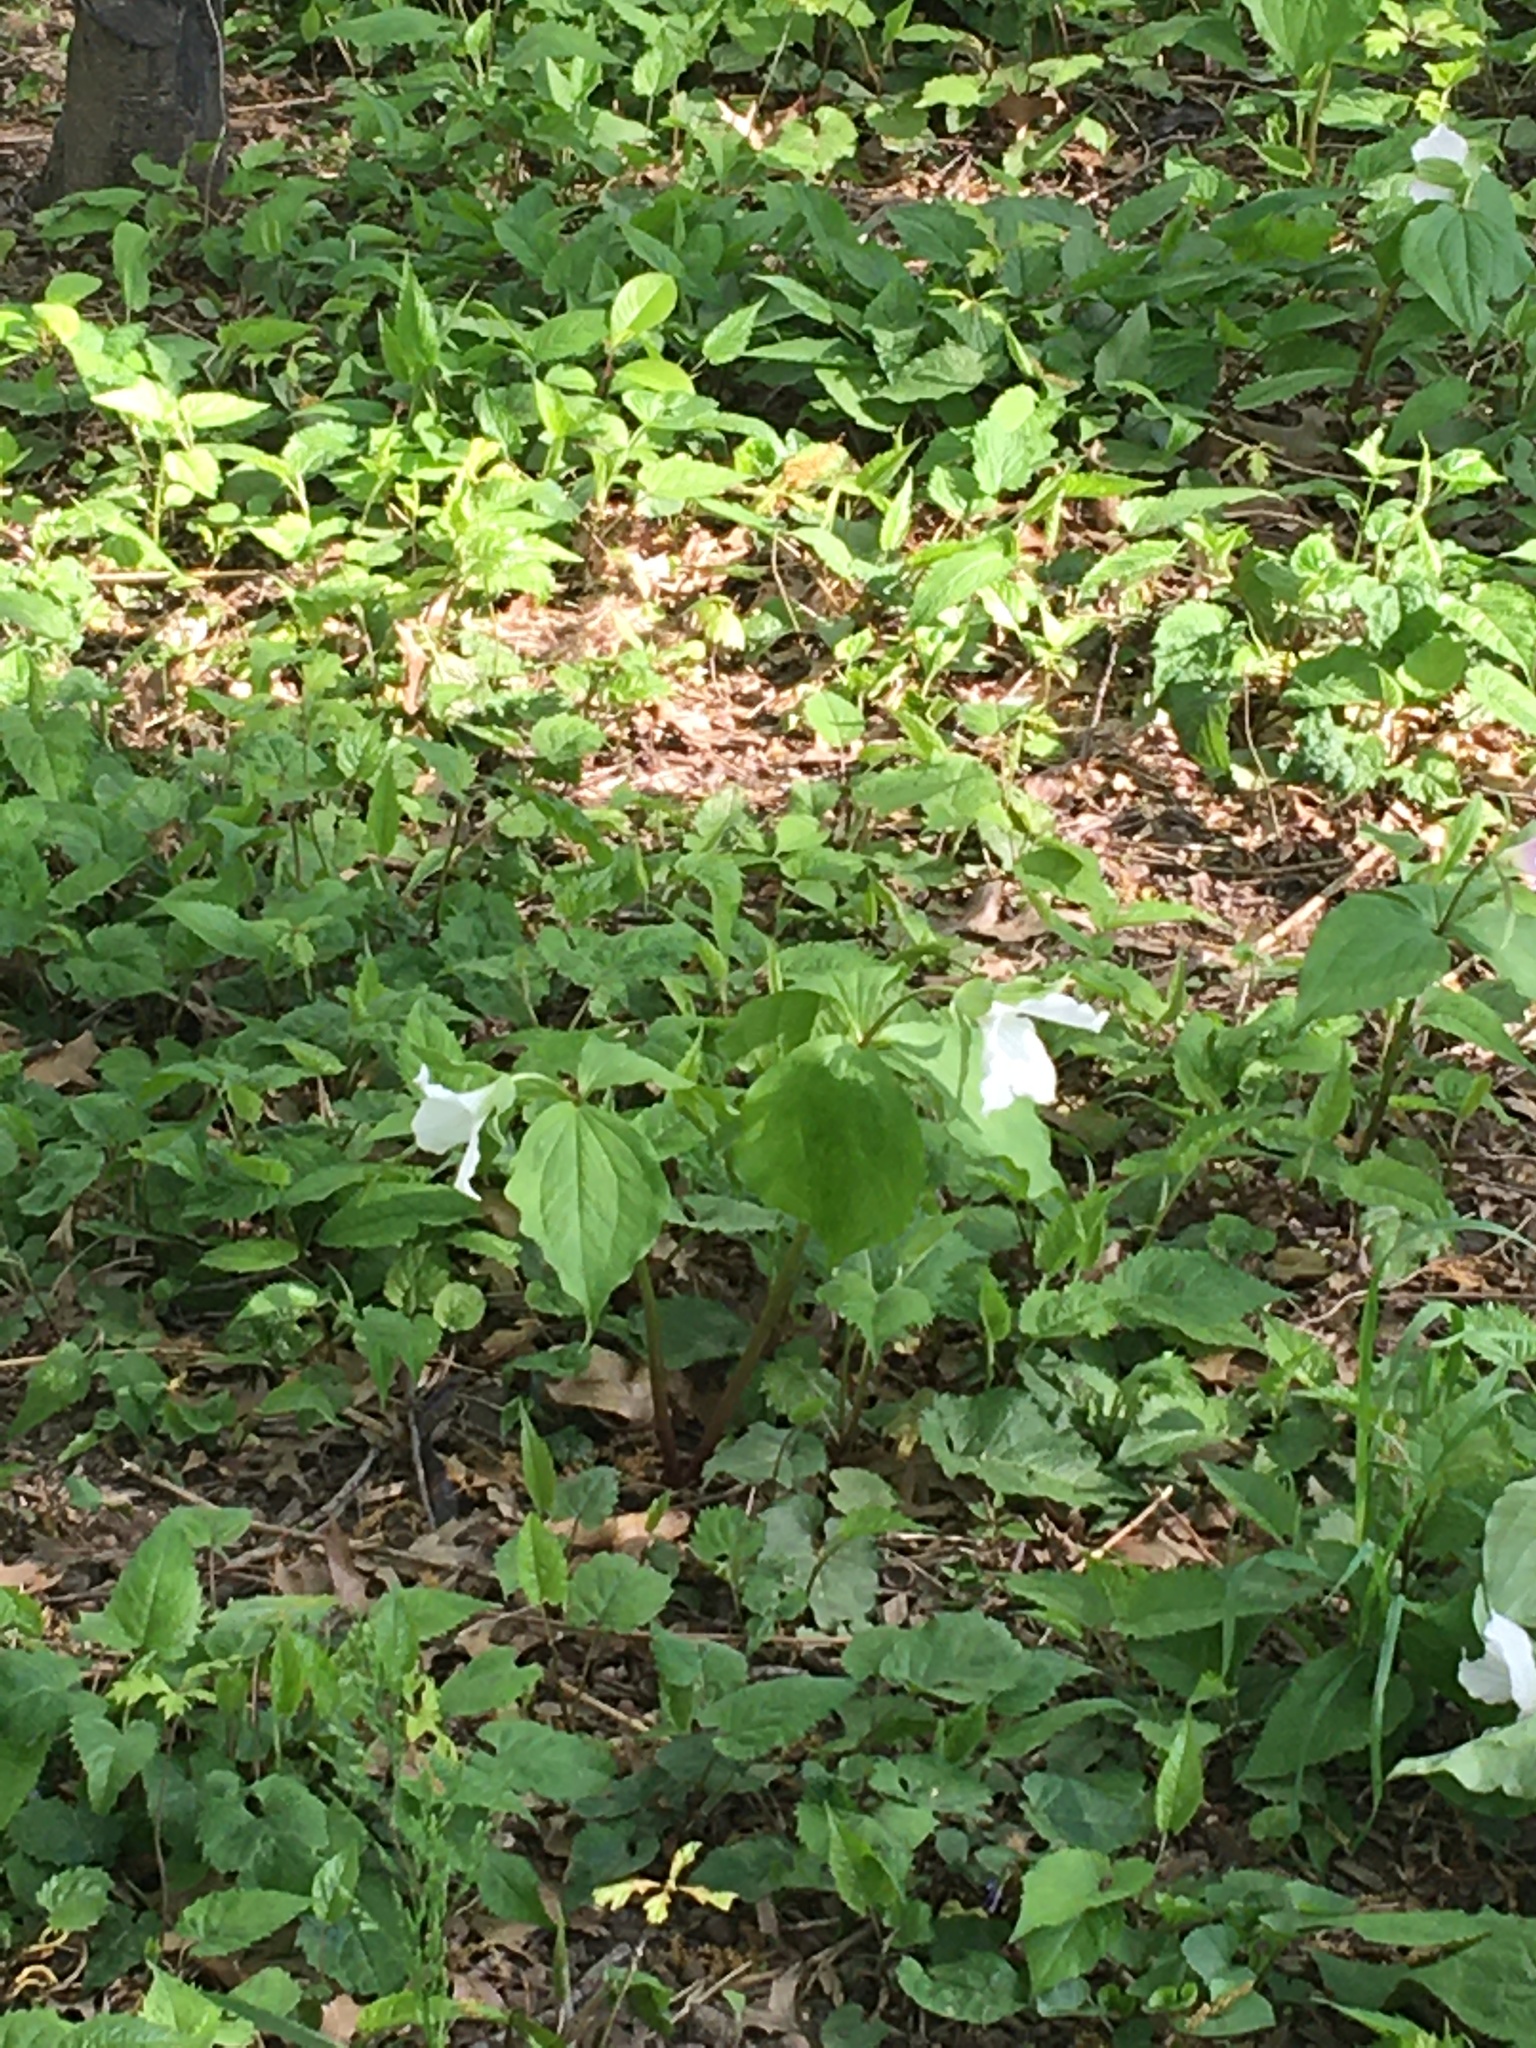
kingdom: Plantae
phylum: Tracheophyta
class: Liliopsida
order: Liliales
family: Melanthiaceae
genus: Trillium
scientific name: Trillium grandiflorum
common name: Great white trillium
